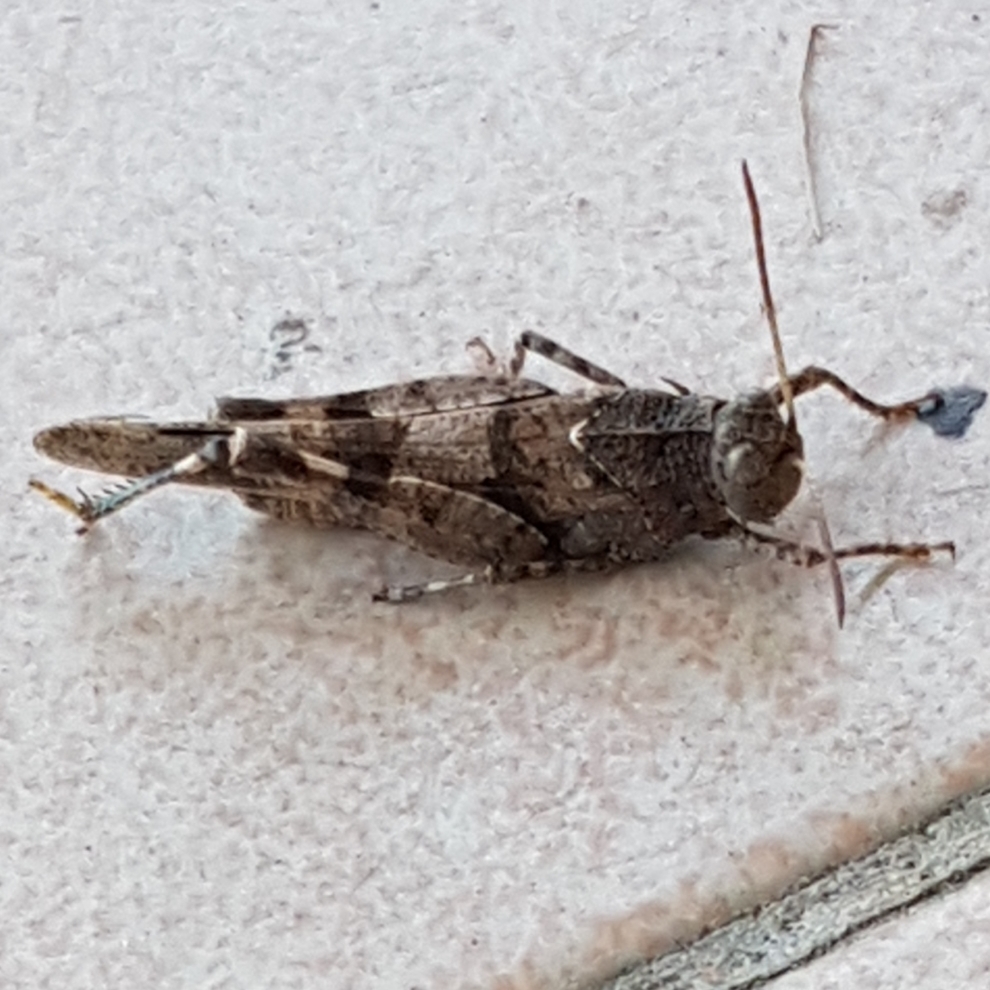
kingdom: Animalia
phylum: Arthropoda
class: Insecta
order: Orthoptera
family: Acrididae
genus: Oedipoda
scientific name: Oedipoda caerulescens
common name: Blue-winged grasshopper
